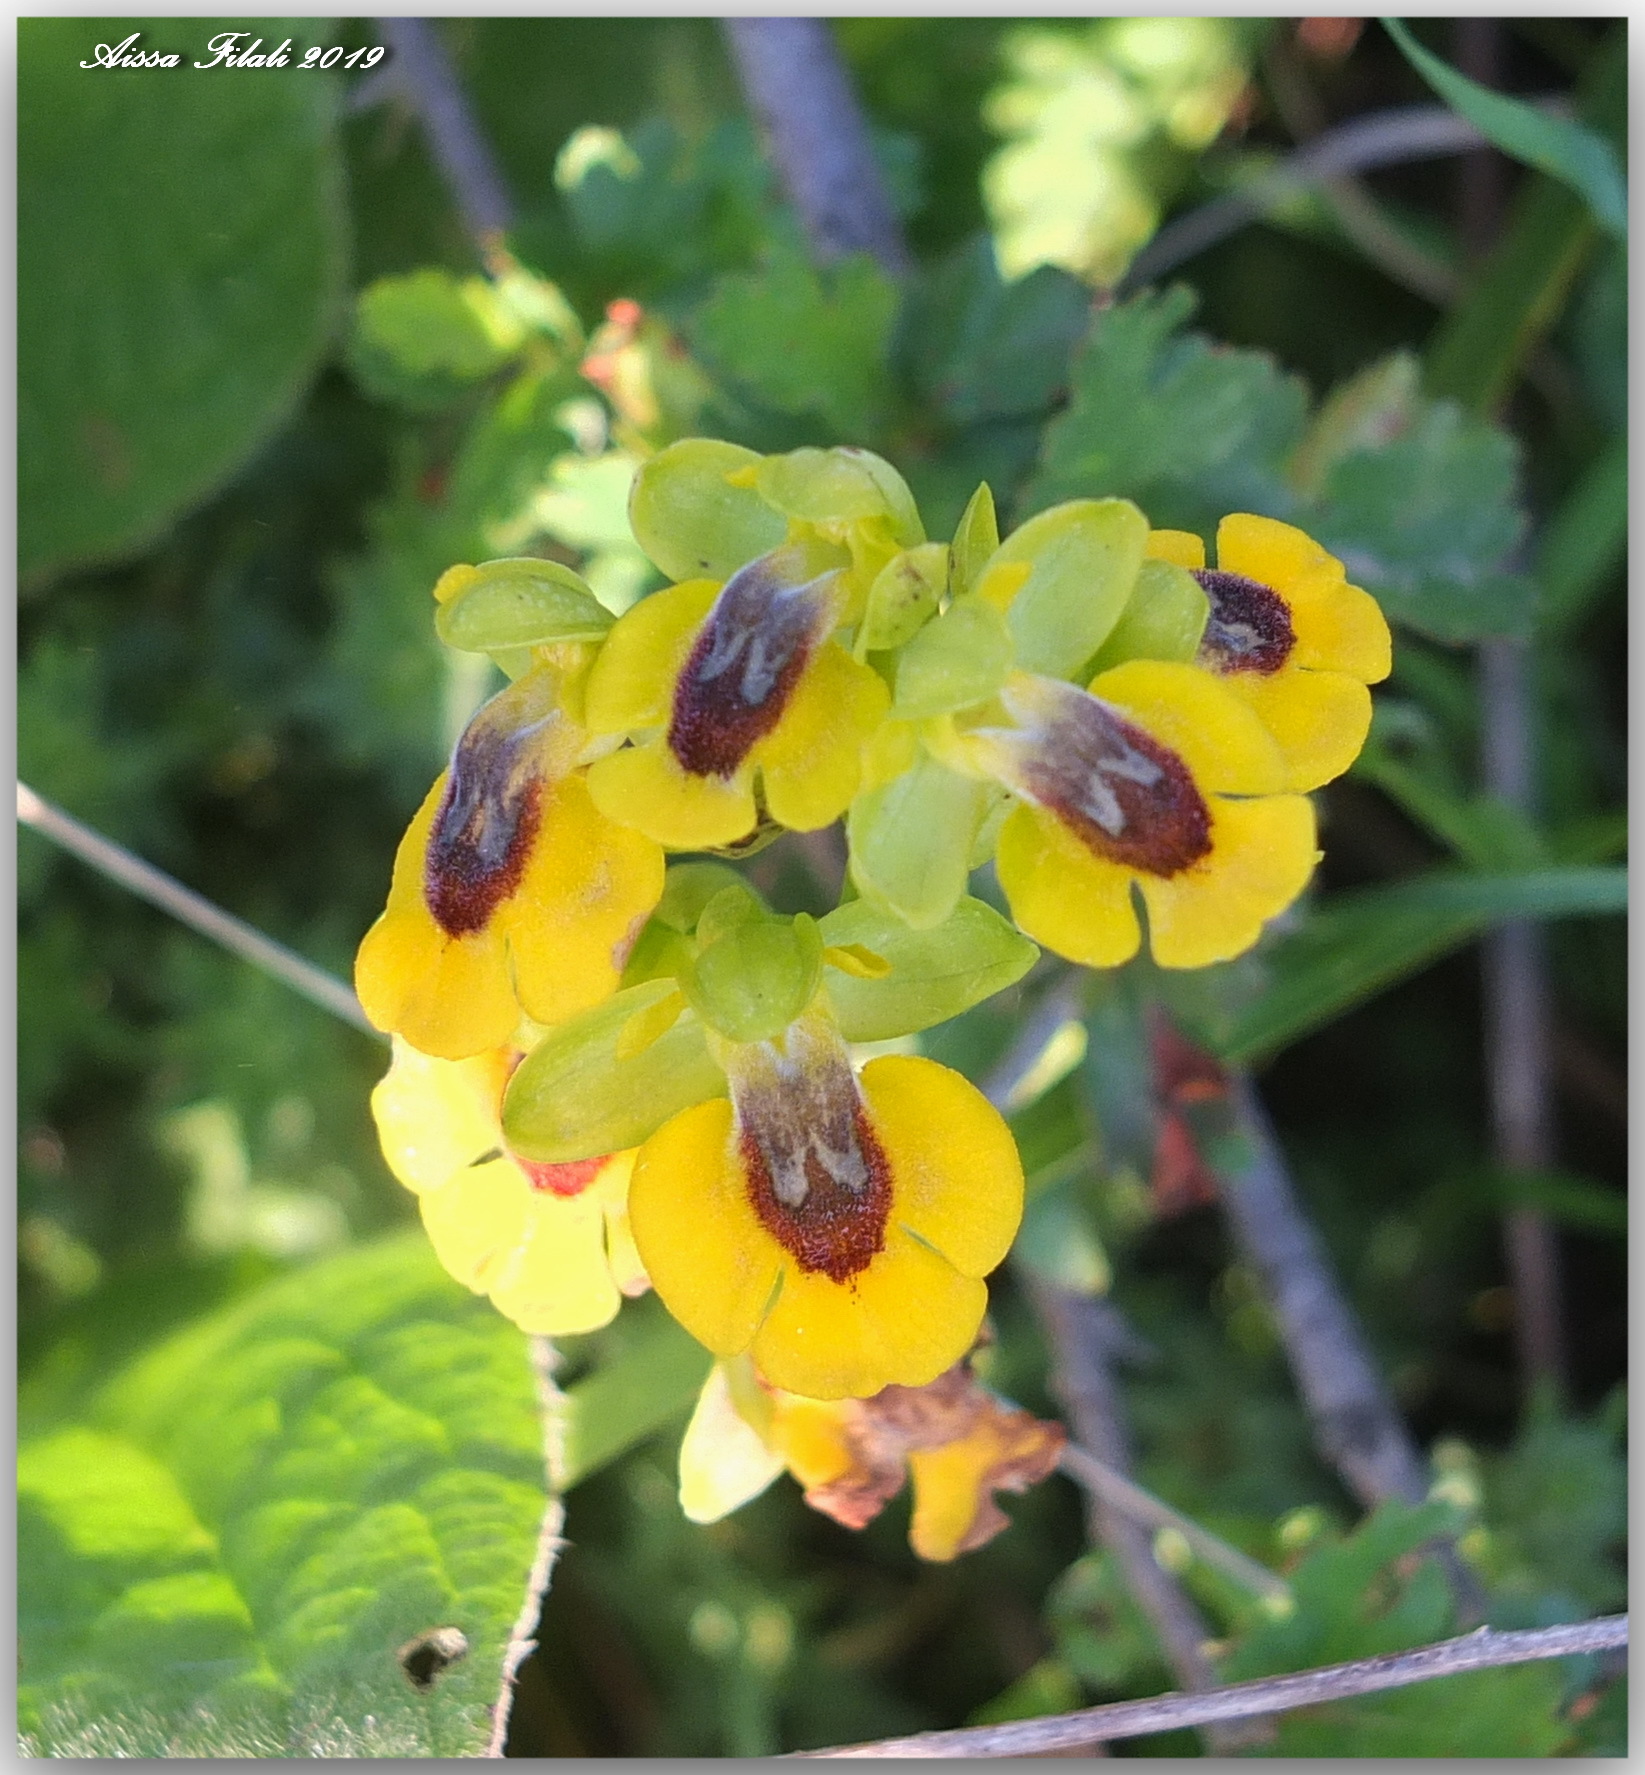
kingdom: Plantae
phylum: Tracheophyta
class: Liliopsida
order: Asparagales
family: Orchidaceae
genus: Ophrys
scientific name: Ophrys lutea
